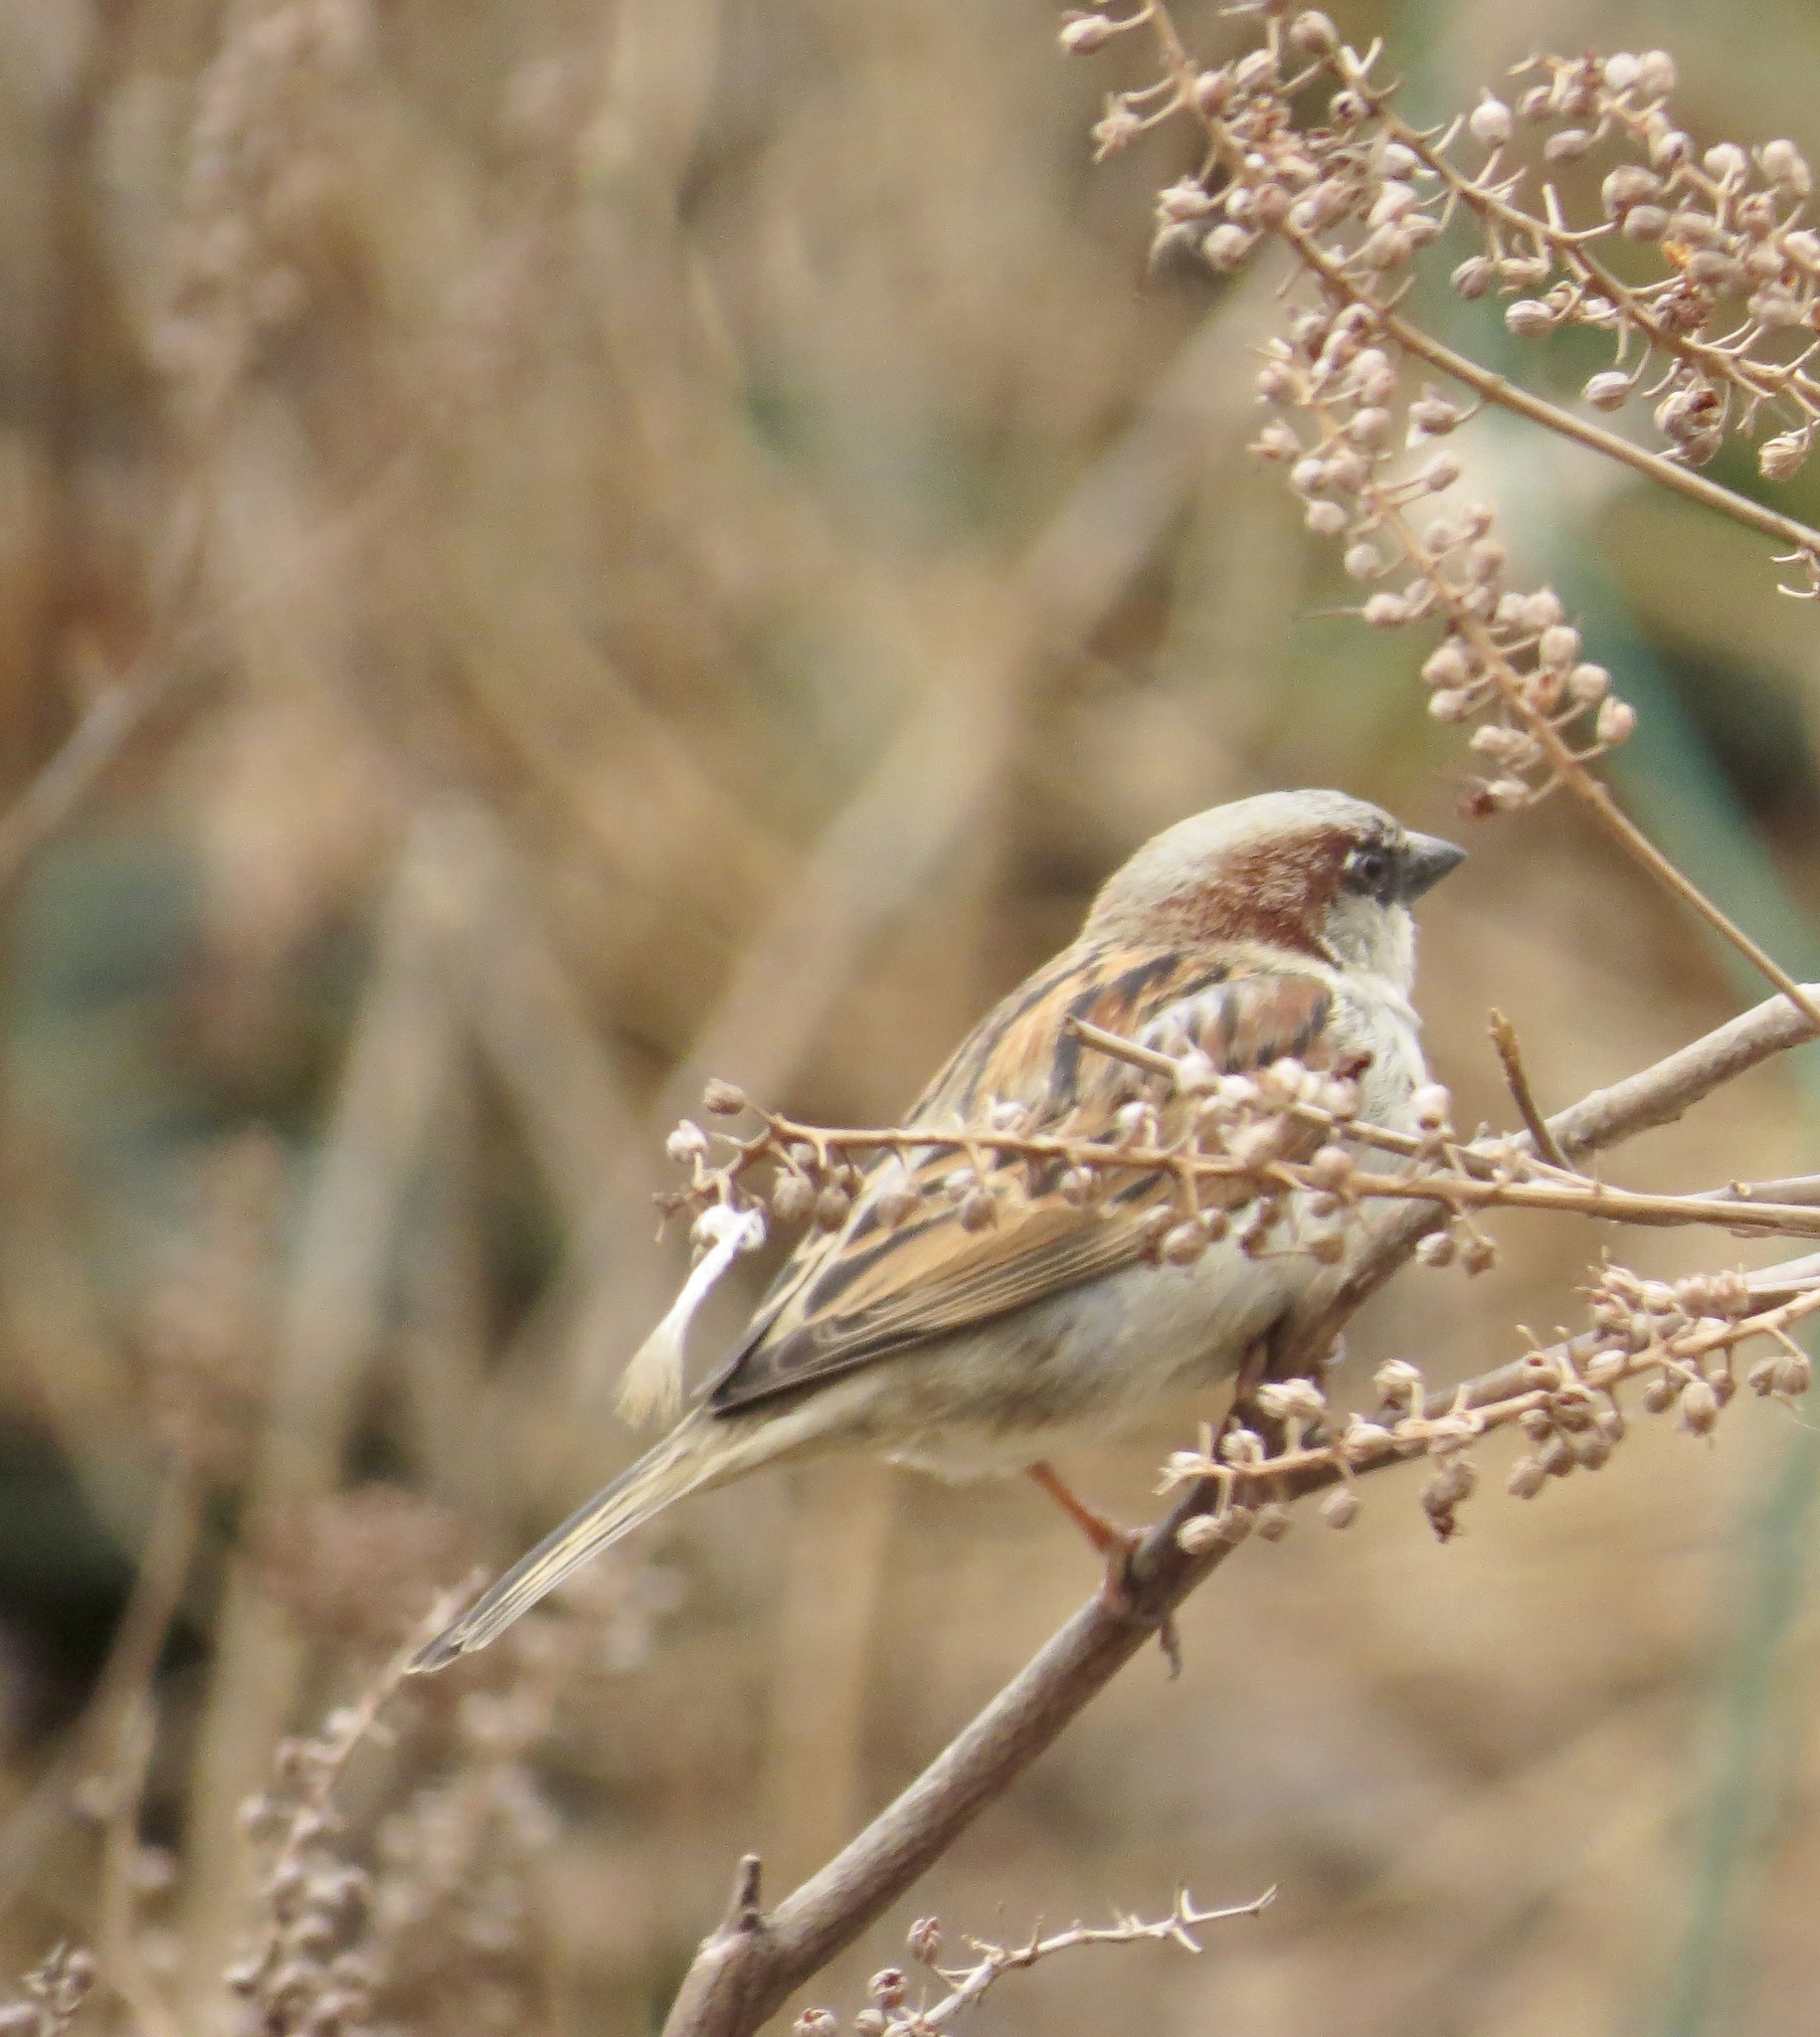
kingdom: Animalia
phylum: Chordata
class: Aves
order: Passeriformes
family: Passeridae
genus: Passer
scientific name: Passer domesticus
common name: House sparrow
